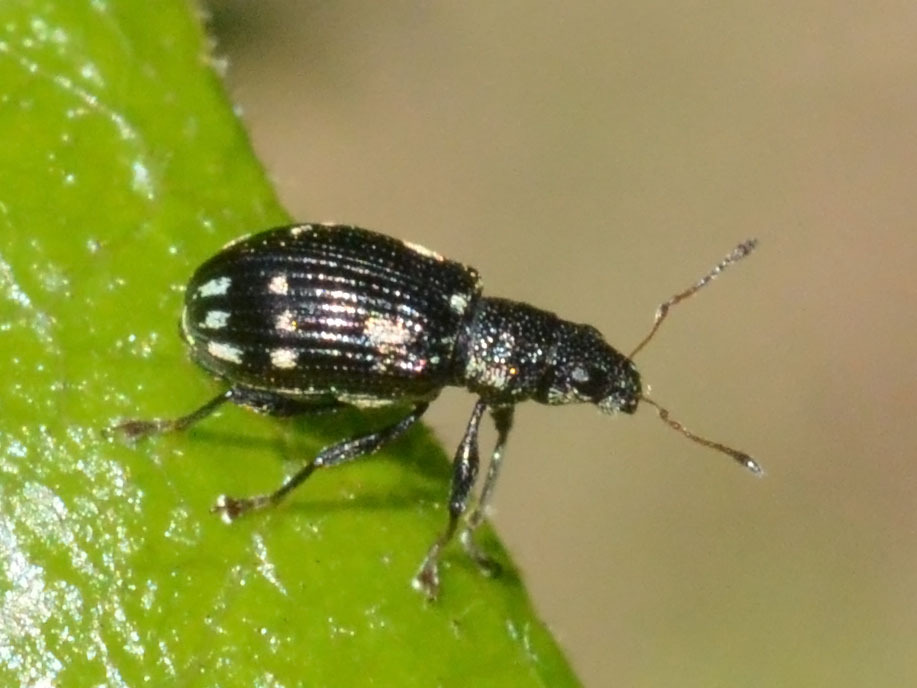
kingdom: Animalia
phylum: Arthropoda
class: Insecta
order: Coleoptera
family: Curculionidae
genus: Polydrusus
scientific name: Polydrusus picus
